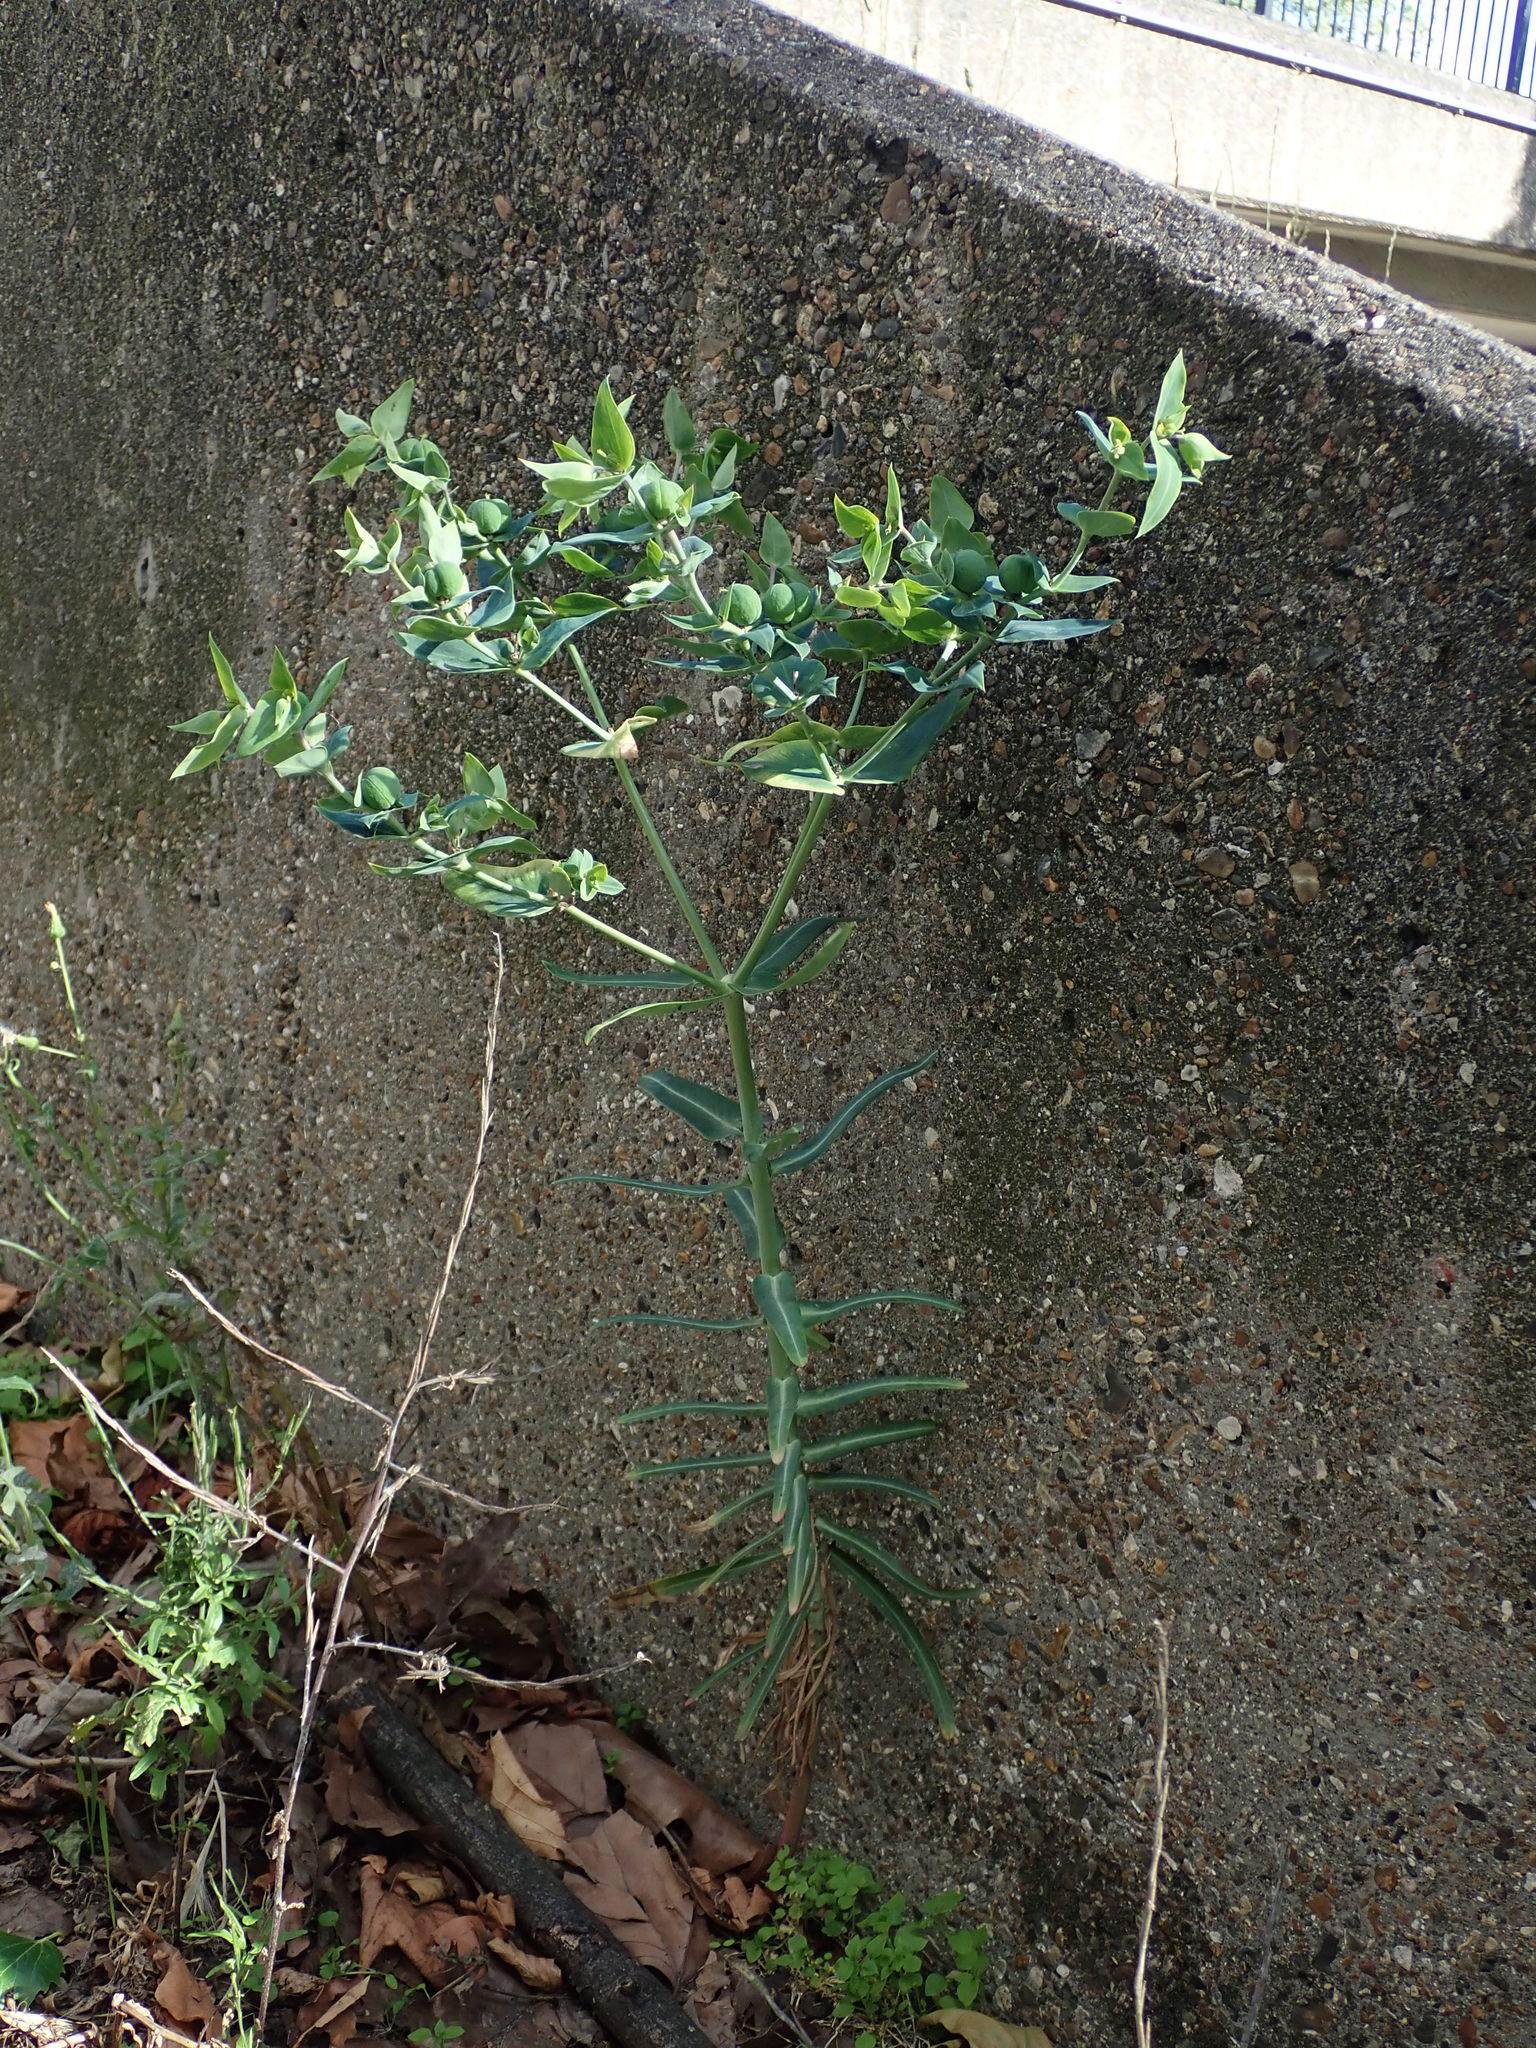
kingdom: Plantae
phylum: Tracheophyta
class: Magnoliopsida
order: Malpighiales
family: Euphorbiaceae
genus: Euphorbia
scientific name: Euphorbia lathyris
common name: Caper spurge
